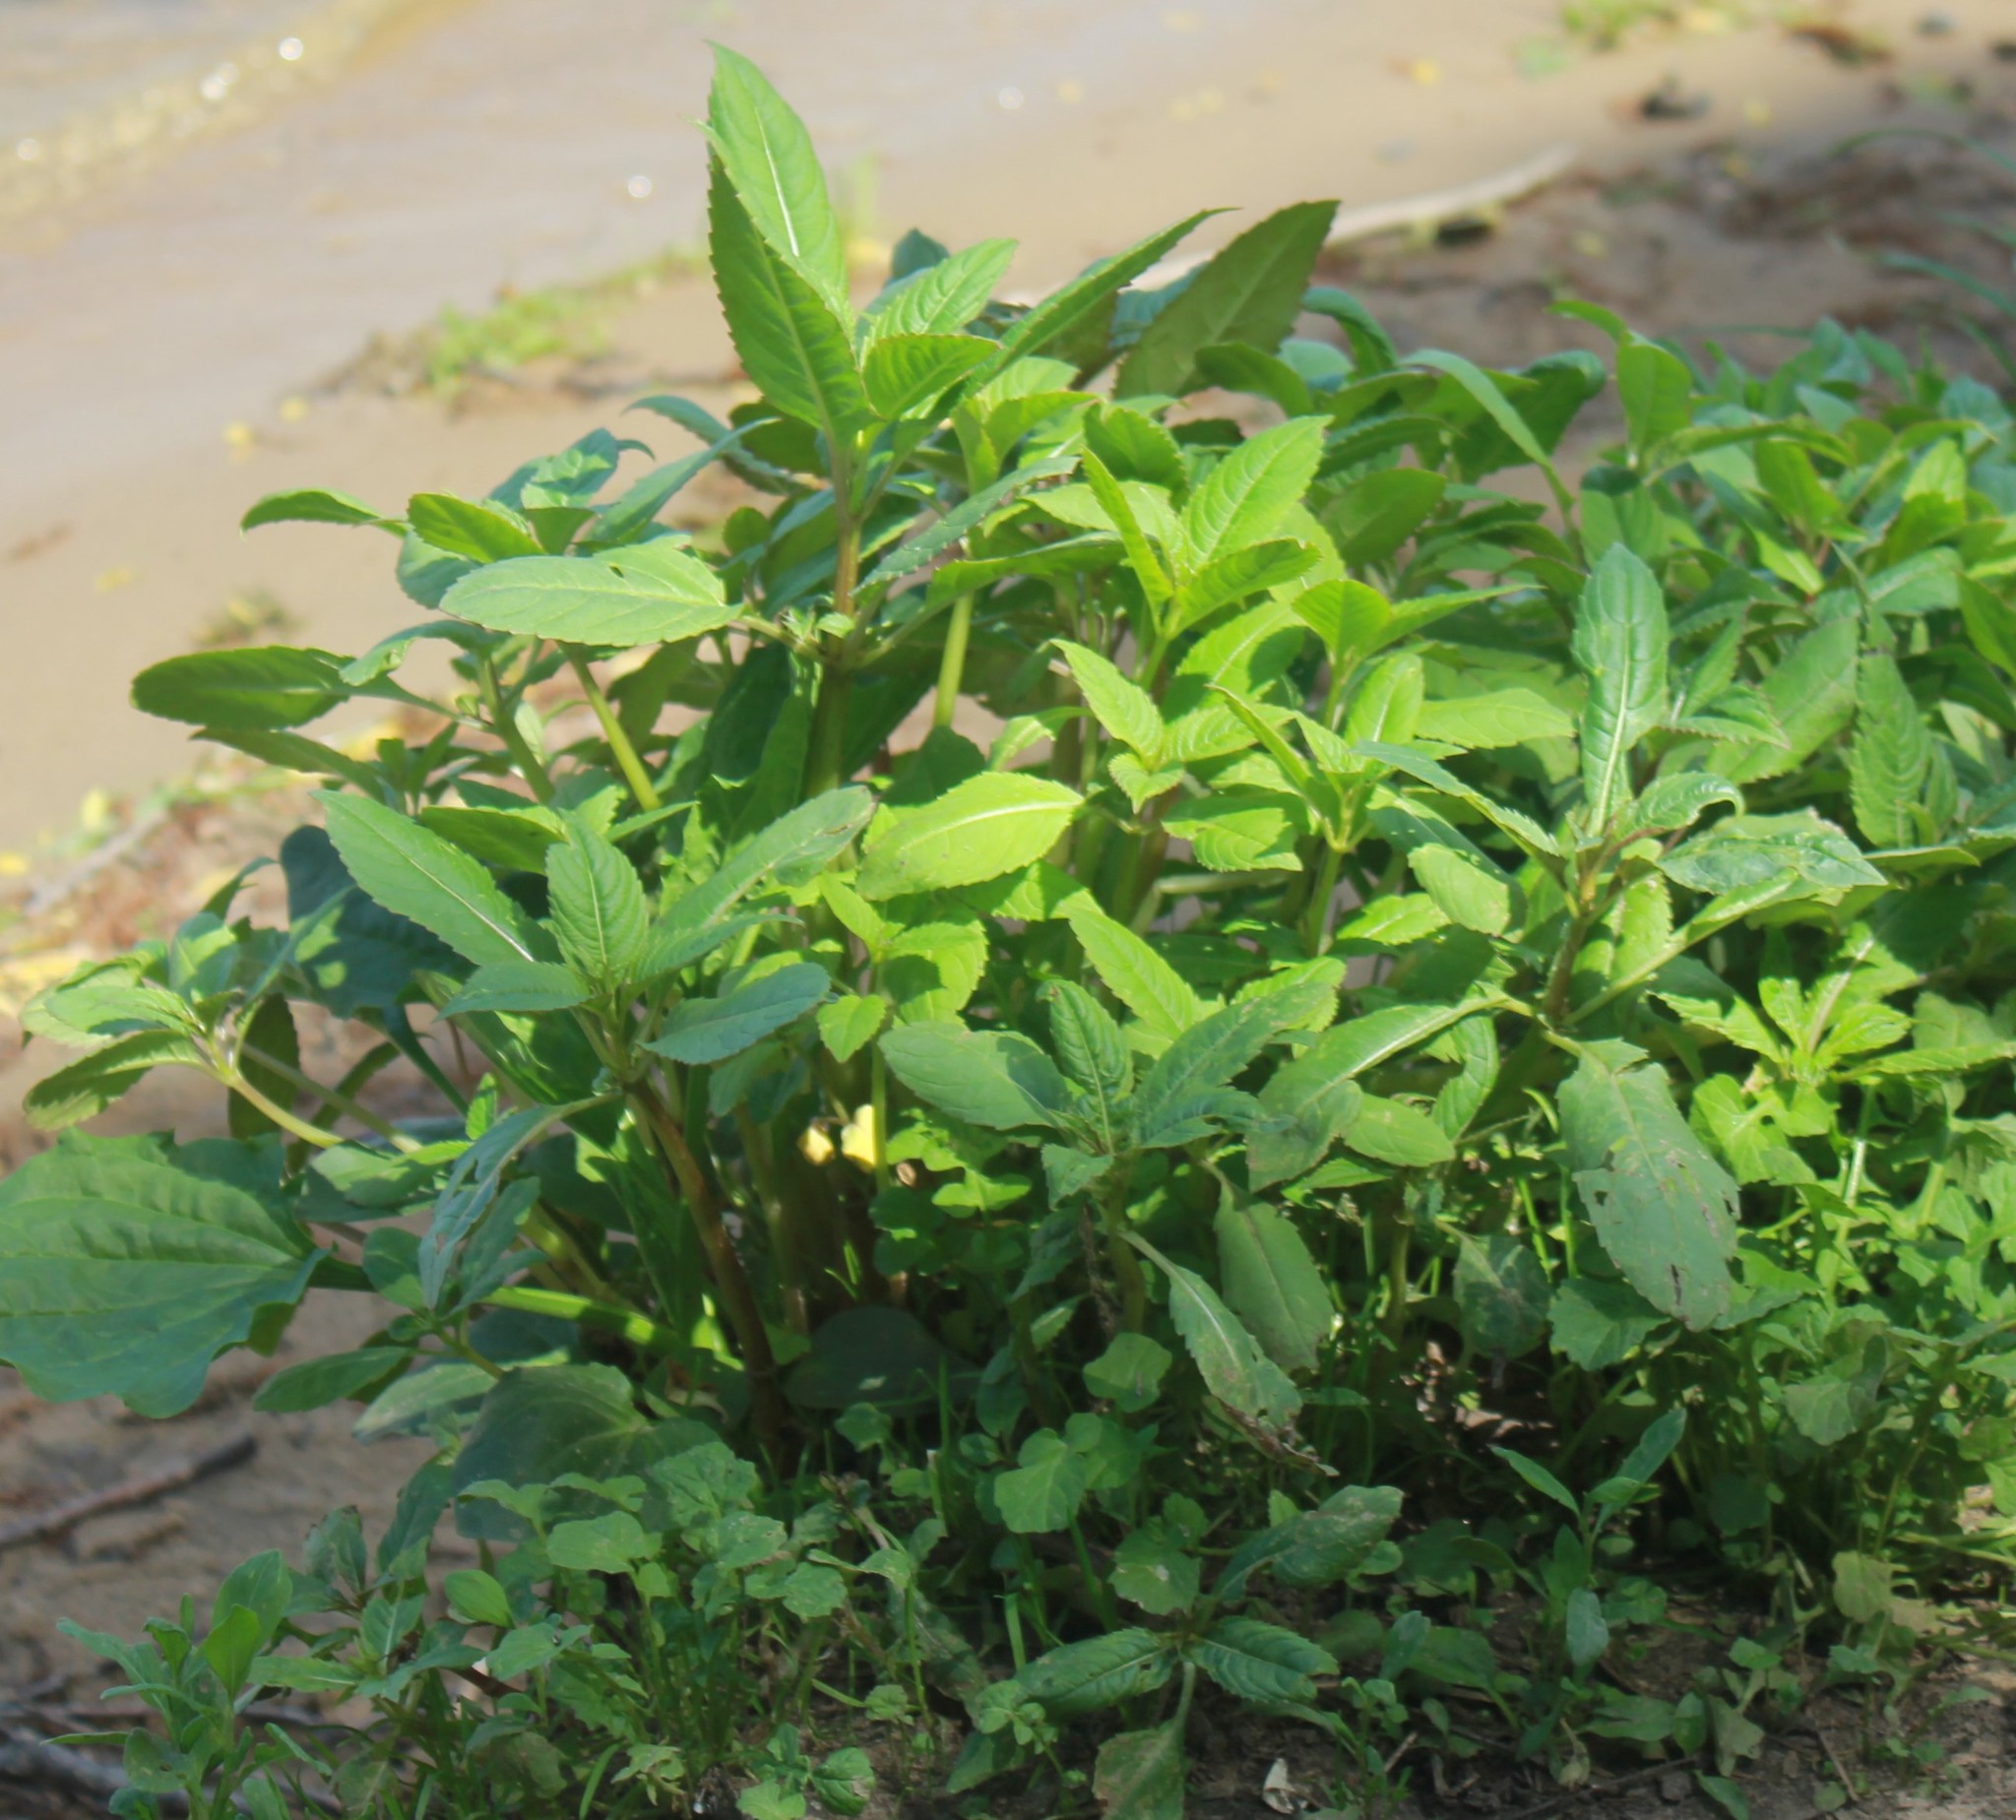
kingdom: Plantae
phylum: Tracheophyta
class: Magnoliopsida
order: Ericales
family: Balsaminaceae
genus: Impatiens
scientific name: Impatiens noli-tangere
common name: Touch-me-not balsam
